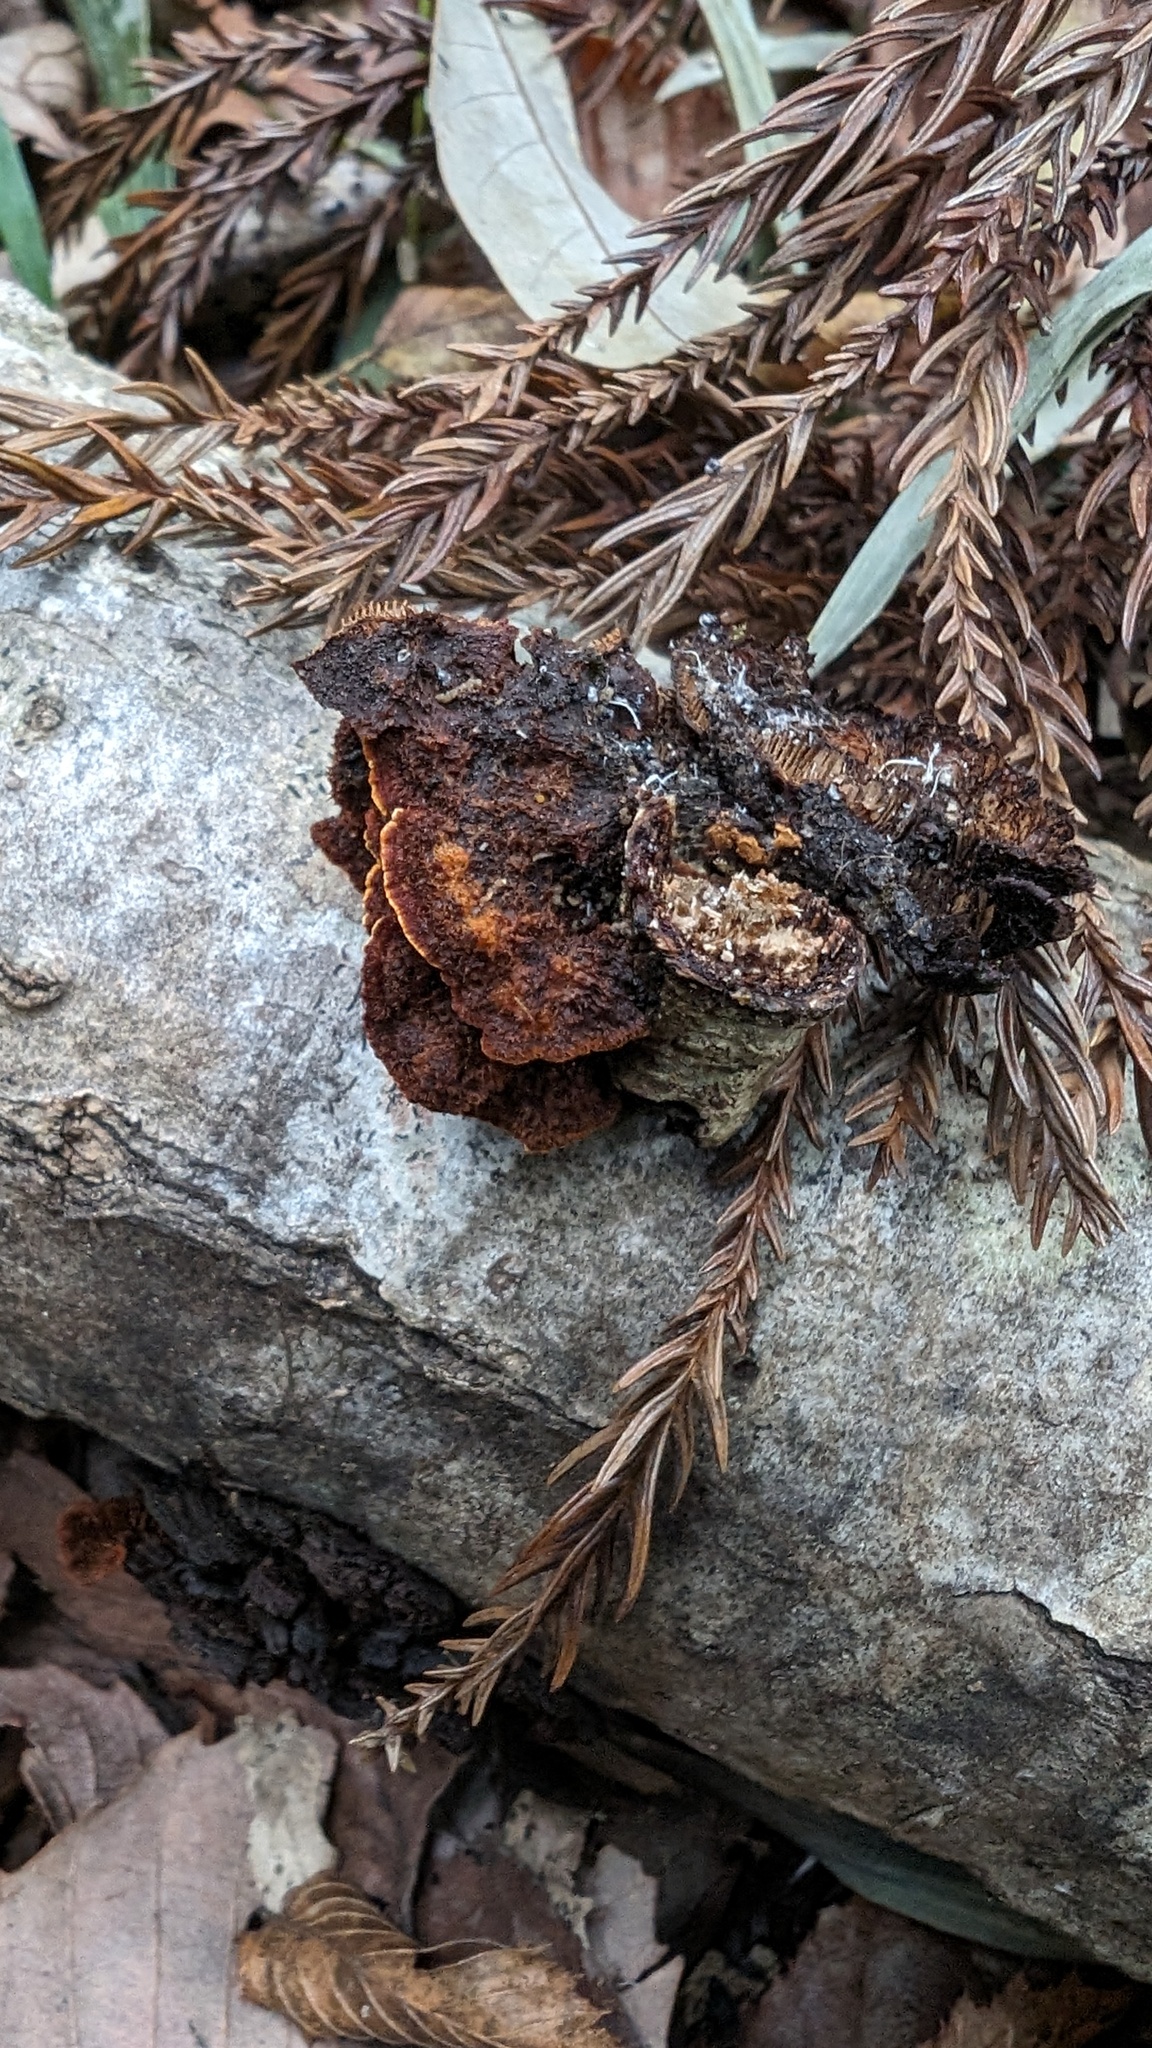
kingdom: Fungi
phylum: Basidiomycota
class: Agaricomycetes
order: Hymenochaetales
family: Hymenochaetaceae
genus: Hymenochaete
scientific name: Hymenochaete cyclolamellata
